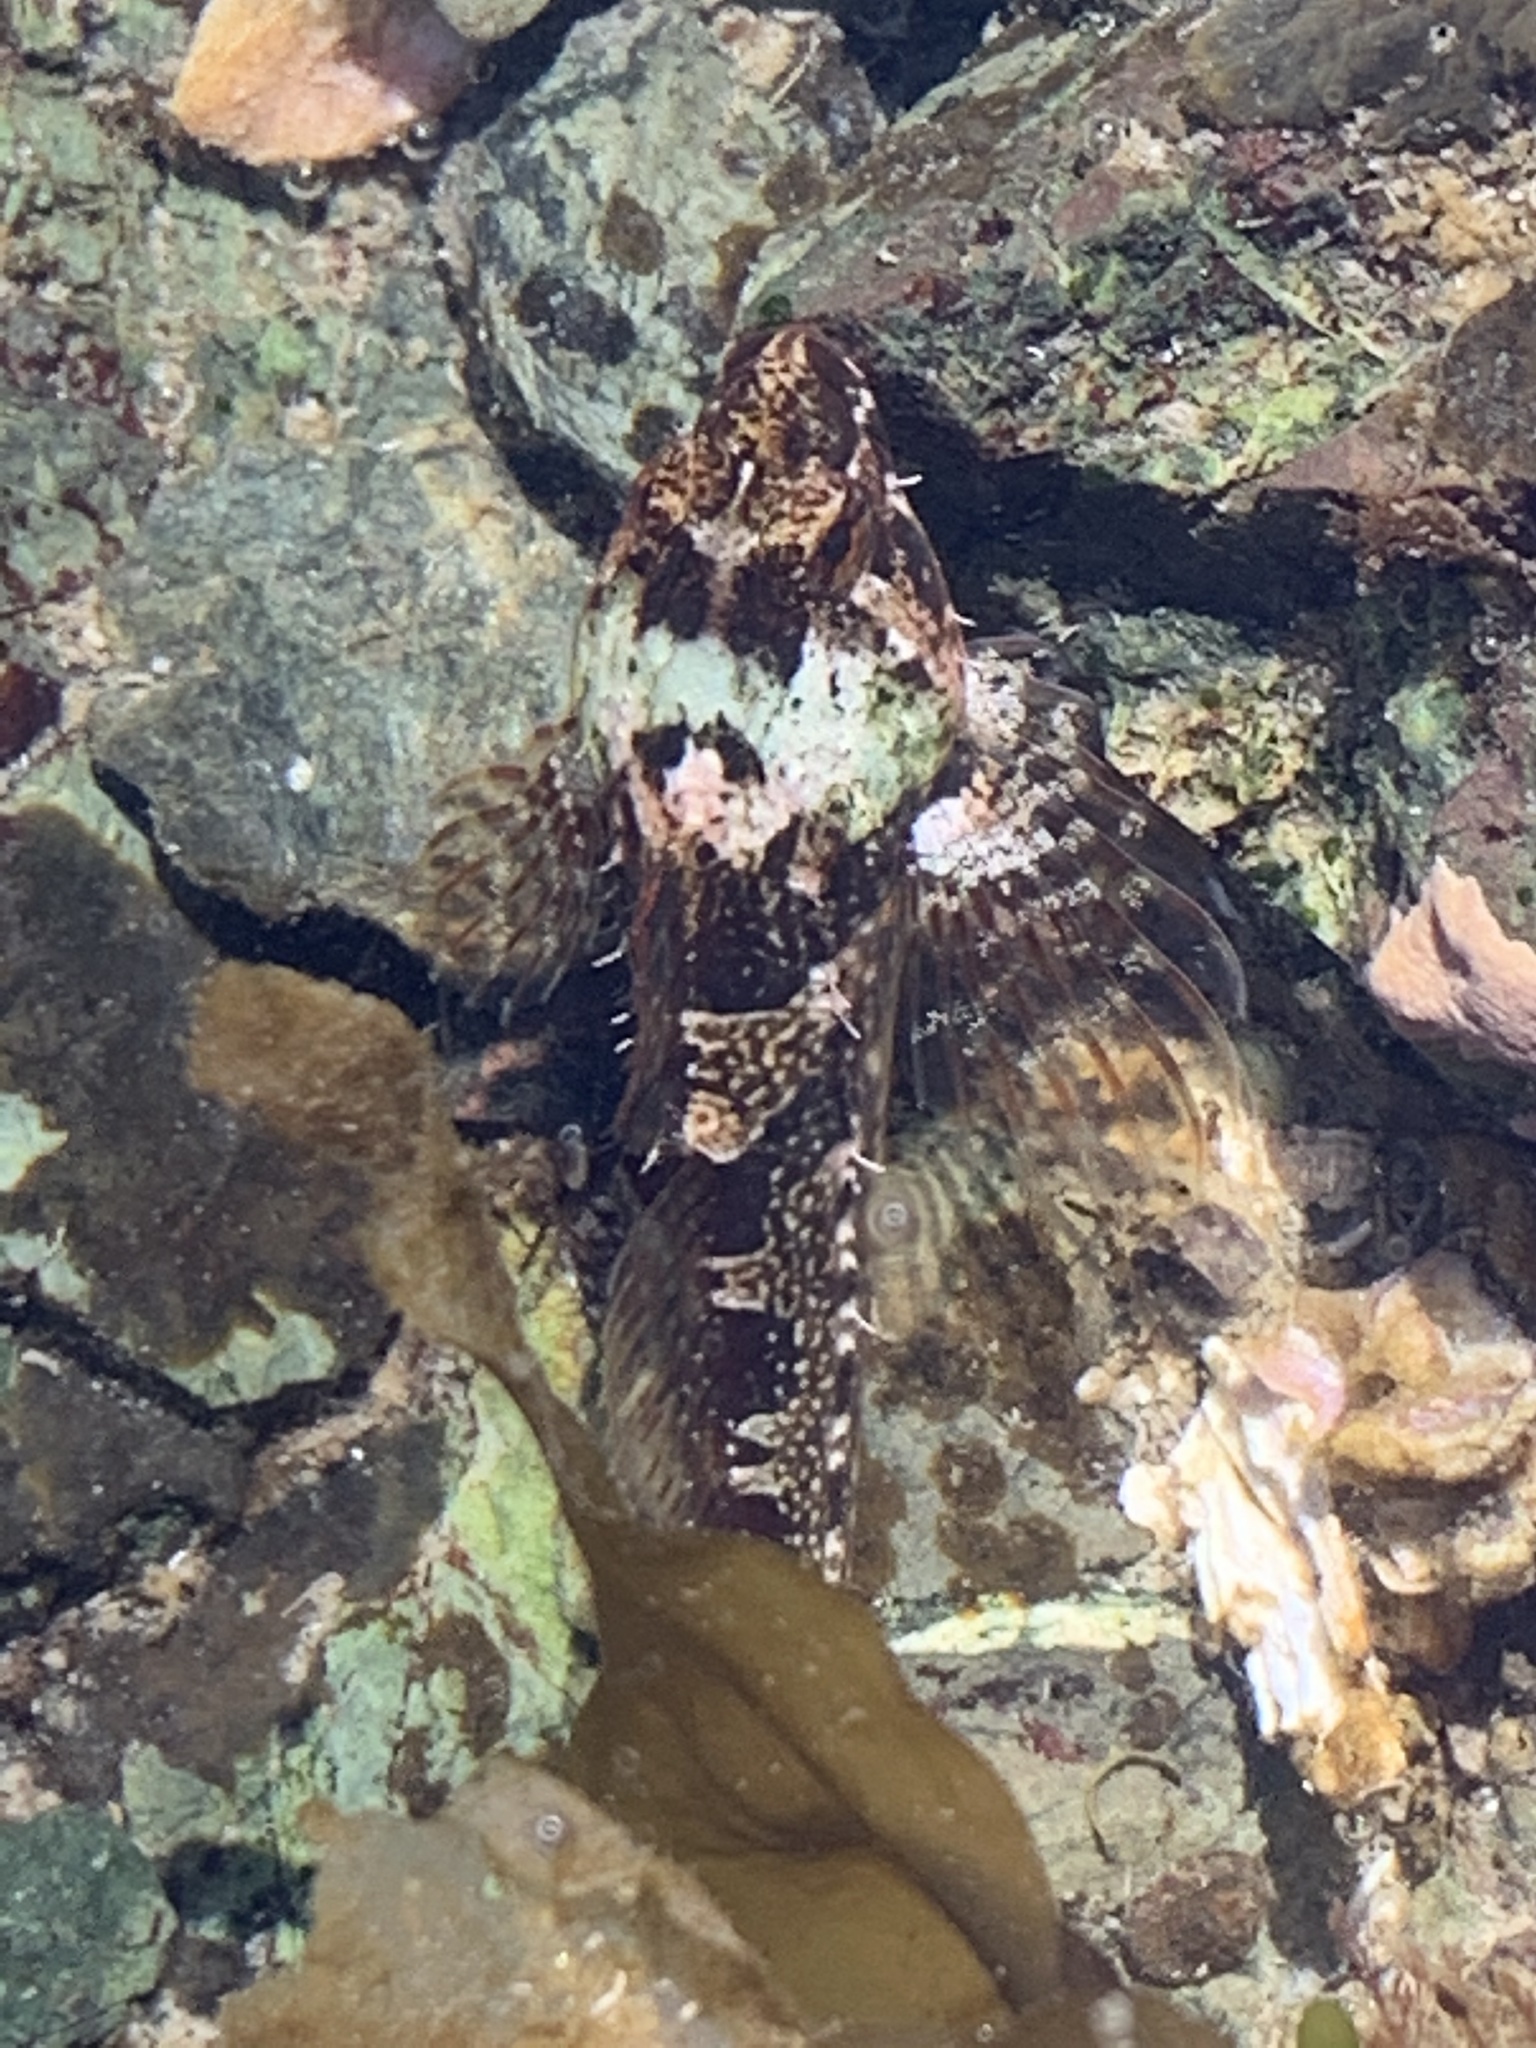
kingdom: Animalia
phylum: Chordata
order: Scorpaeniformes
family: Cottidae
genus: Oligocottus
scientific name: Oligocottus maculosus
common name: Tidepool sculpin
